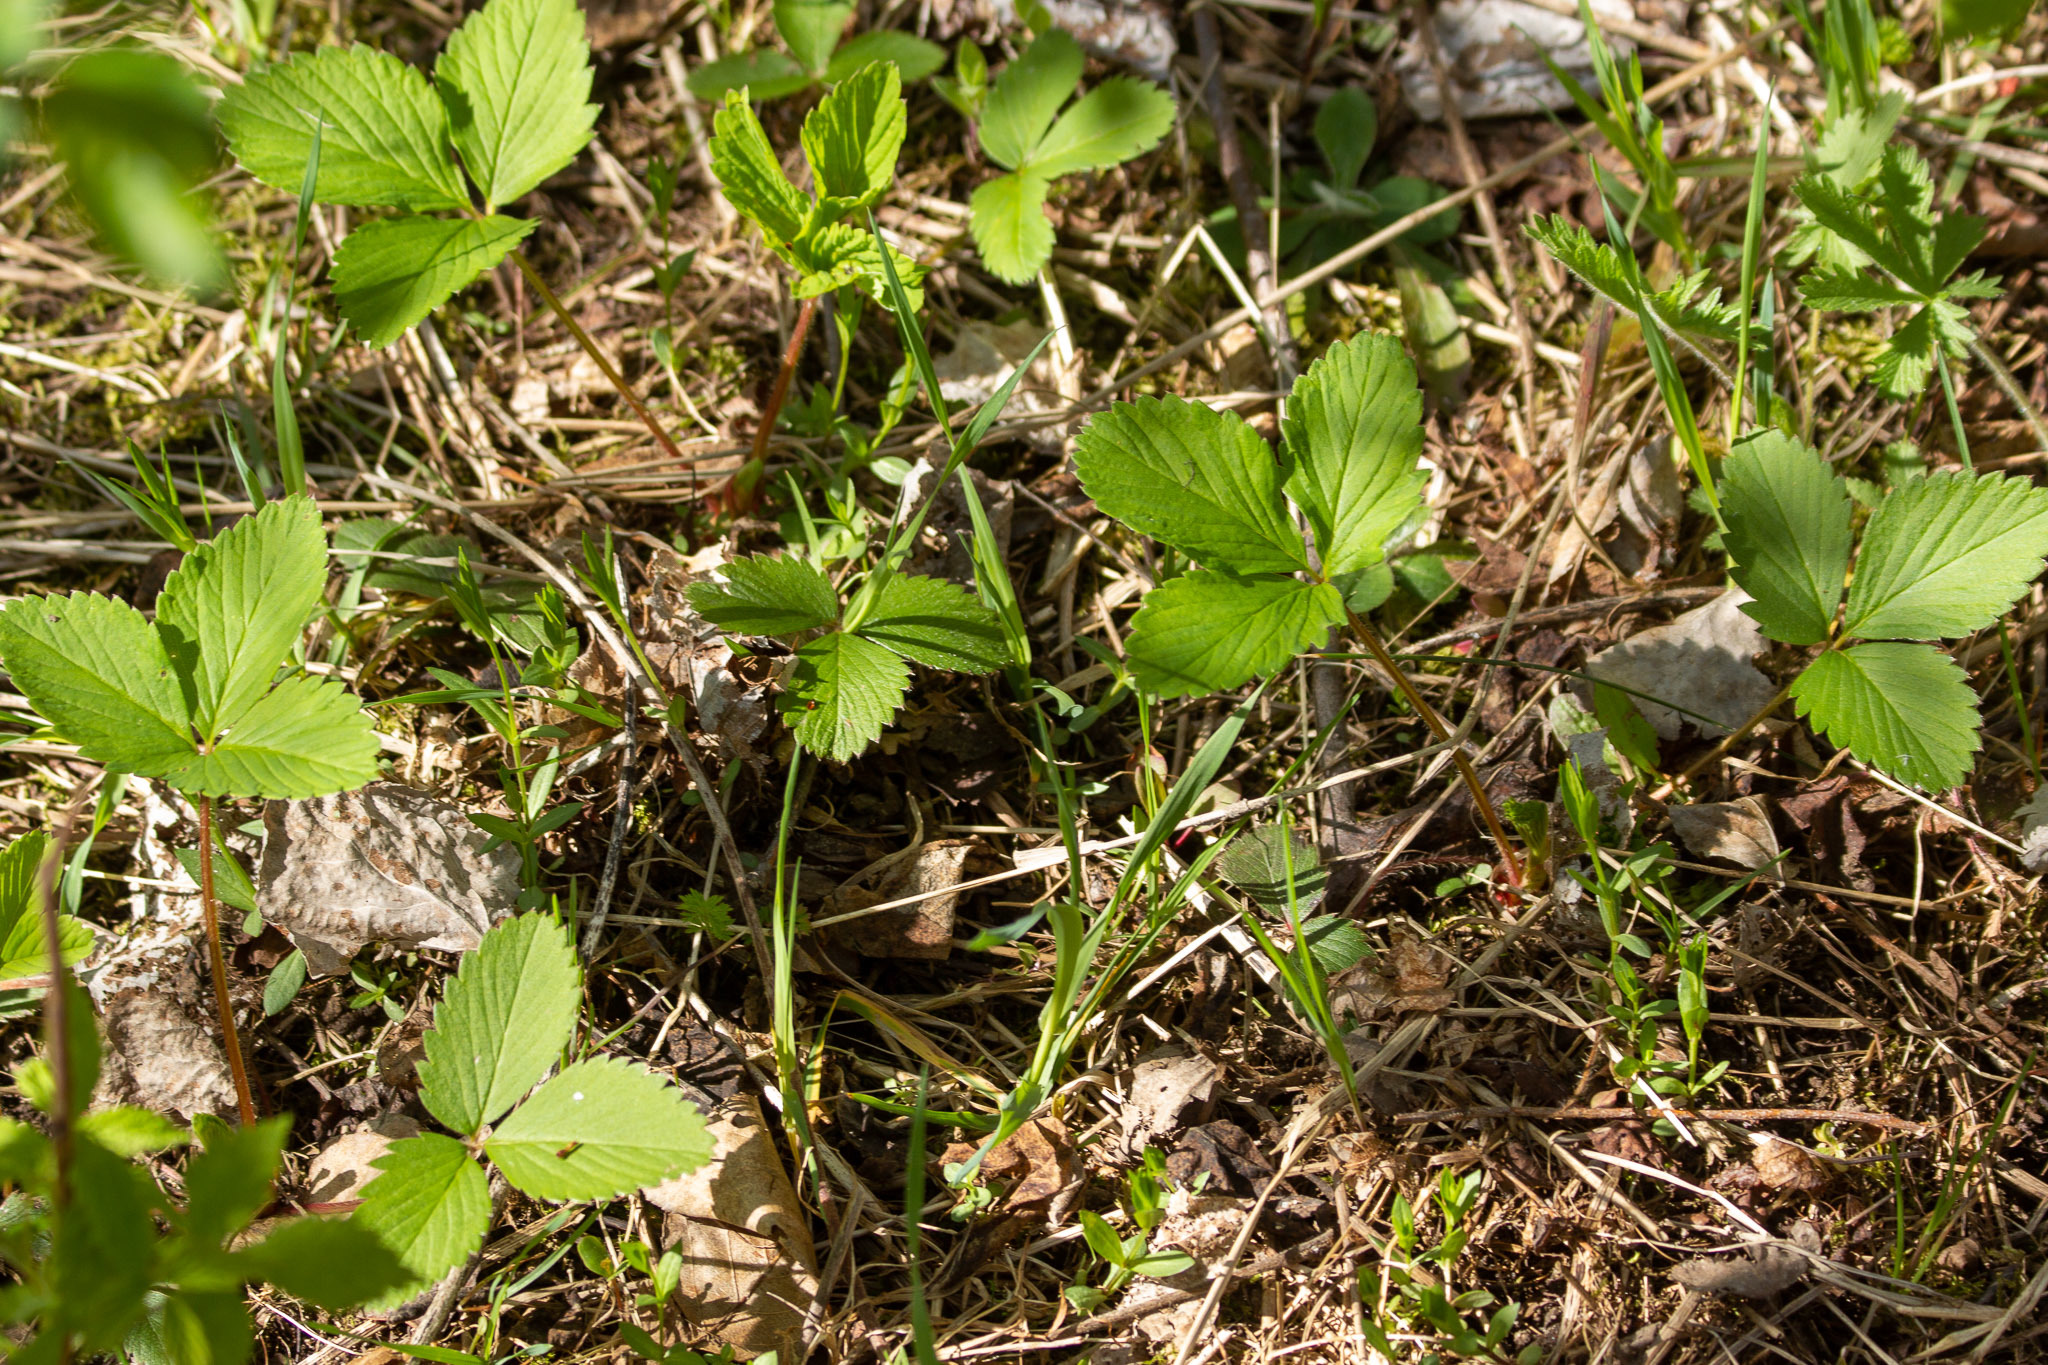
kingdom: Plantae
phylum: Tracheophyta
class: Magnoliopsida
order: Rosales
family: Rosaceae
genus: Fragaria
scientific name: Fragaria virginiana
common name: Thickleaved wild strawberry
